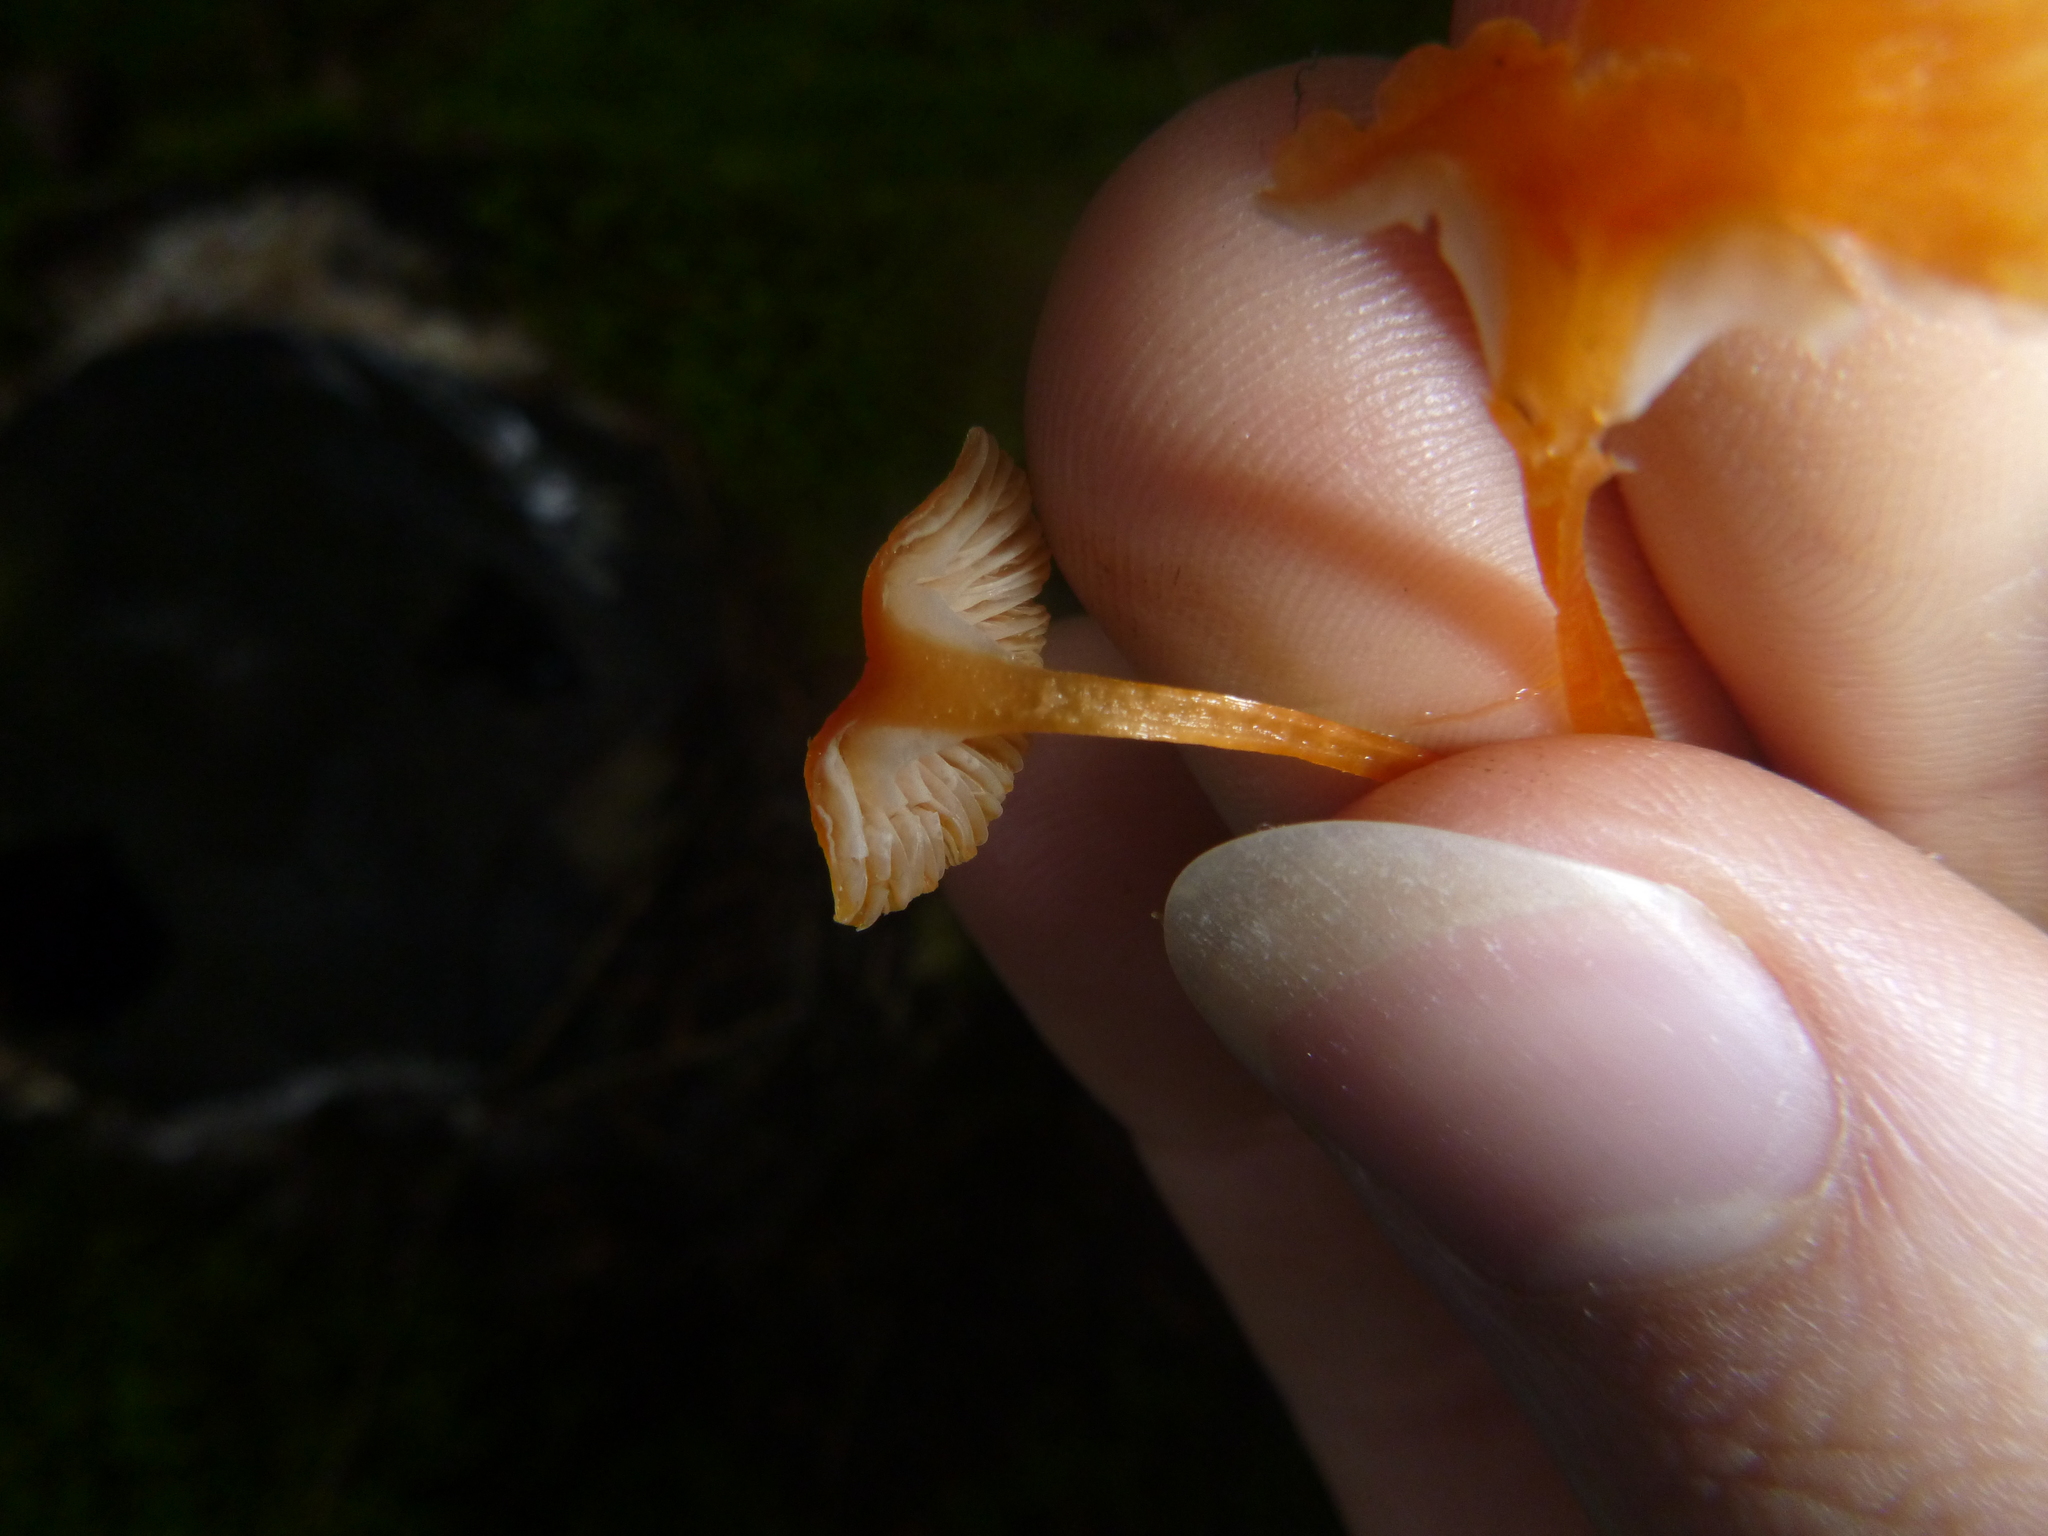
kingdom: Fungi
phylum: Basidiomycota
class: Agaricomycetes
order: Hymenochaetales
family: Rickenellaceae
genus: Rickenella
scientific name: Rickenella fibula
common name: Orange mosscap
